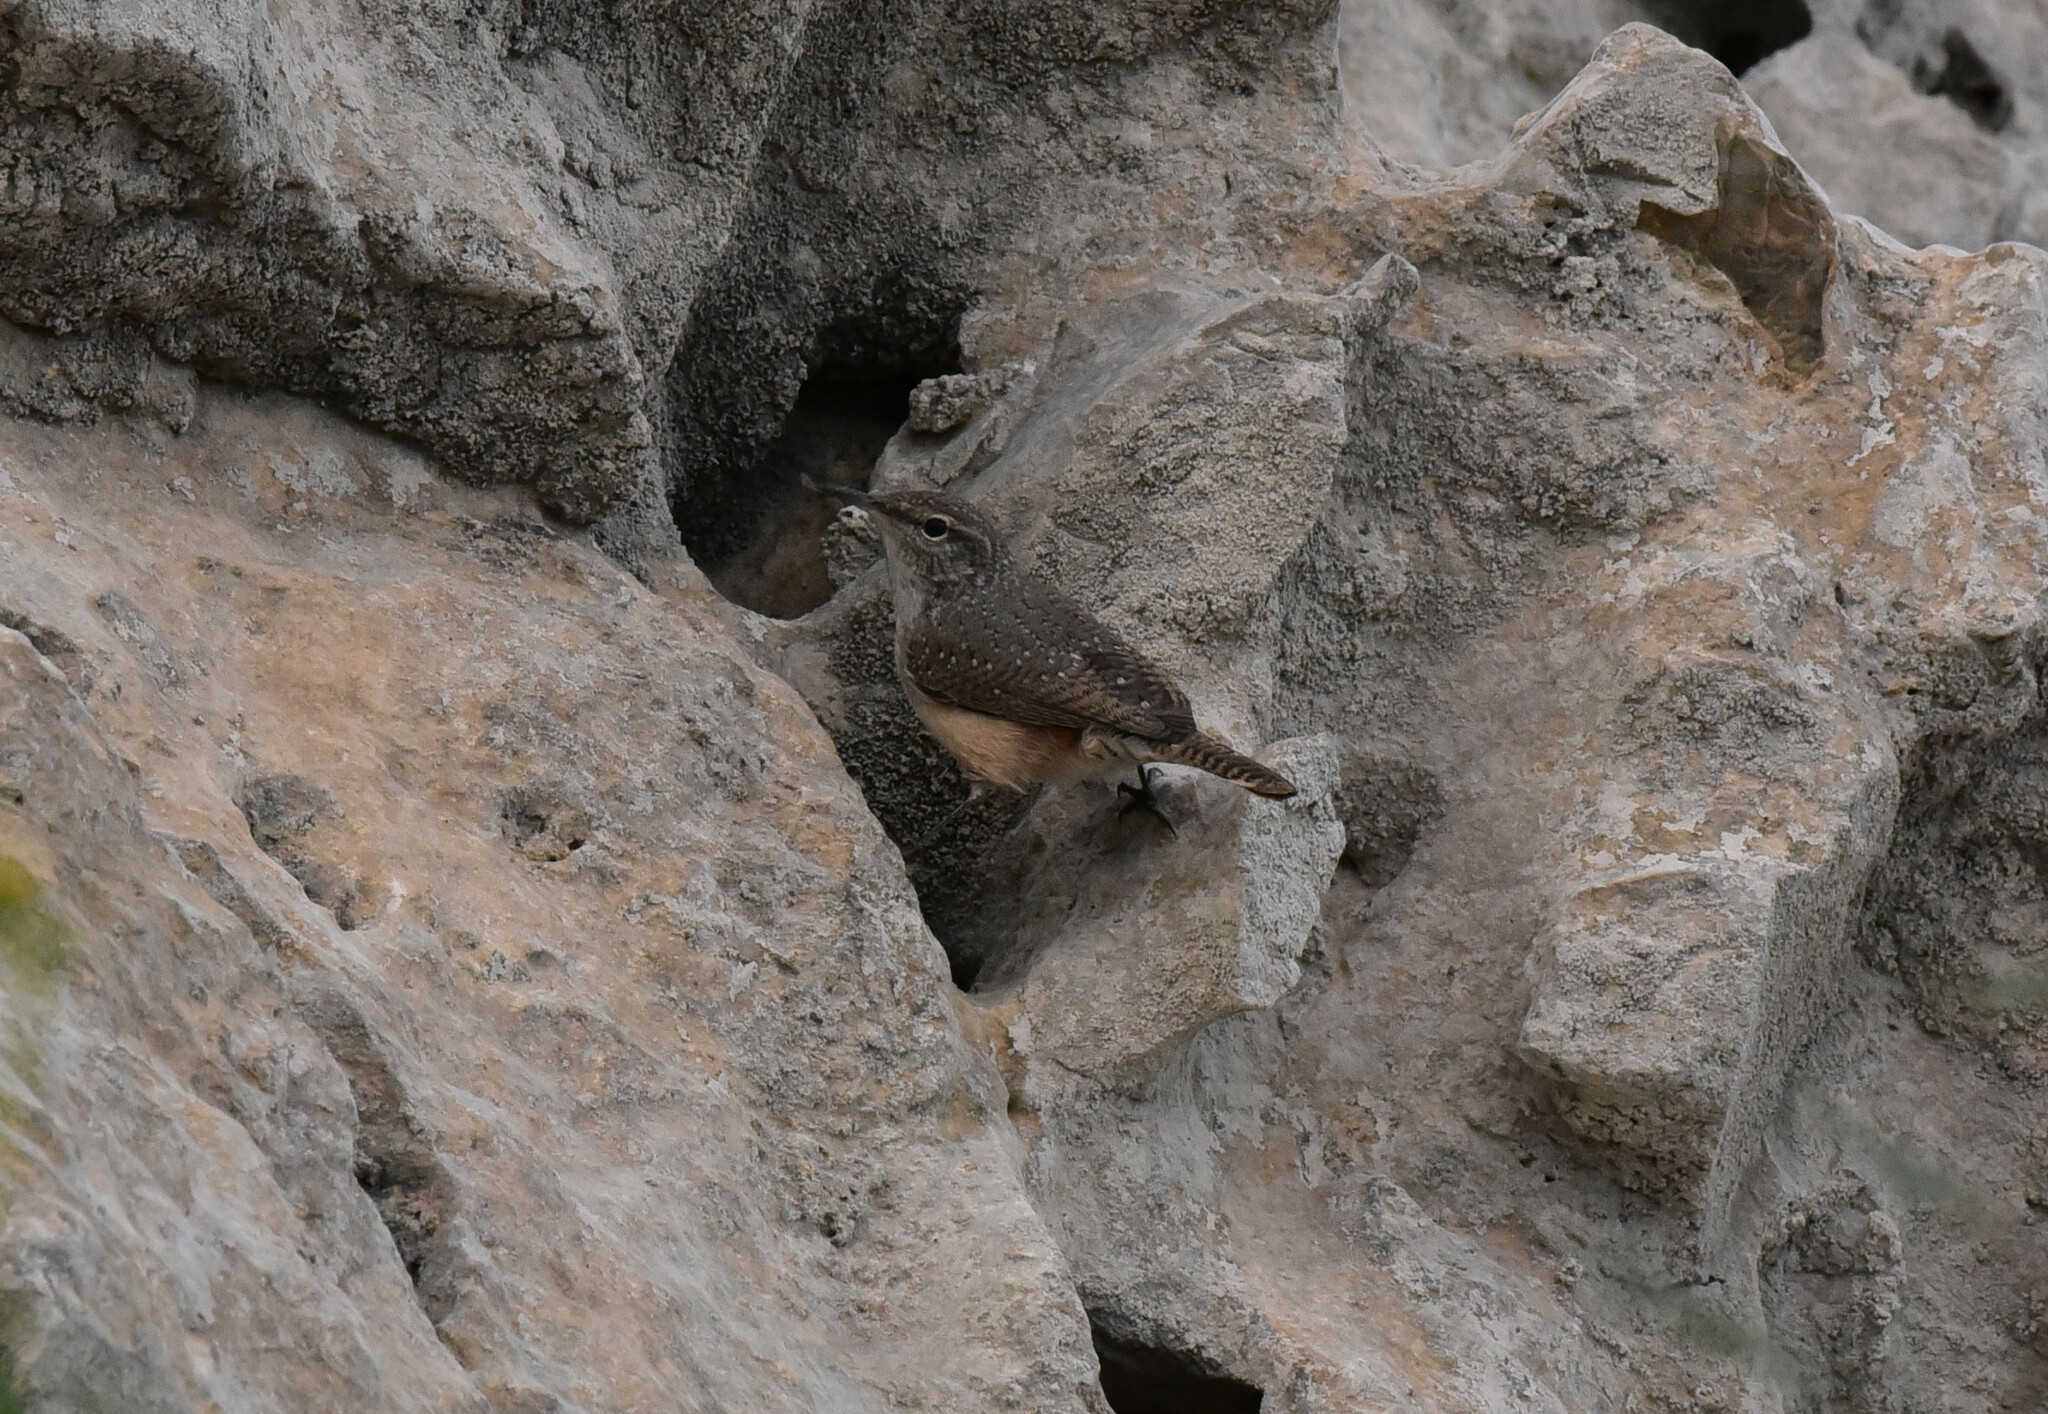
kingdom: Animalia
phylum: Chordata
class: Aves
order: Passeriformes
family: Troglodytidae
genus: Salpinctes
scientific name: Salpinctes obsoletus
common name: Rock wren
